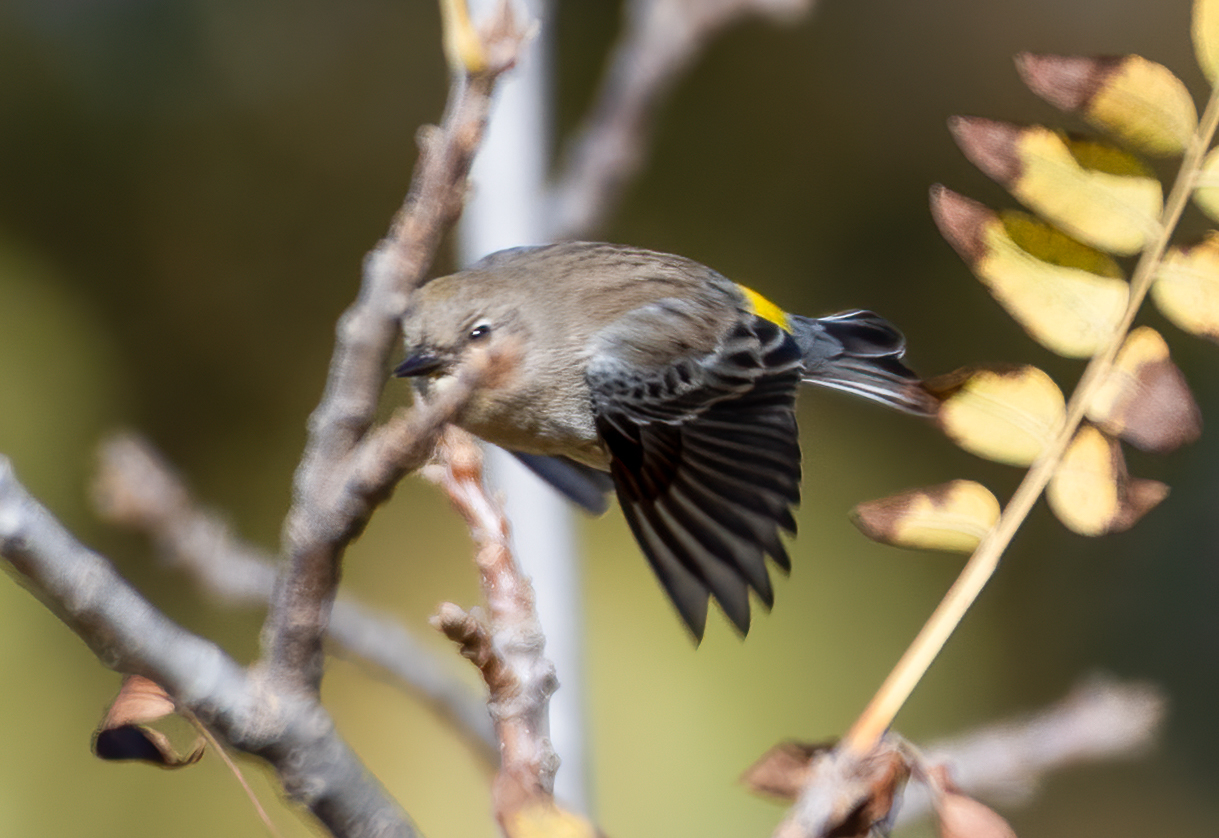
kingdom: Animalia
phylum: Chordata
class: Aves
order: Passeriformes
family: Parulidae
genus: Setophaga
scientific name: Setophaga coronata
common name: Myrtle warbler
